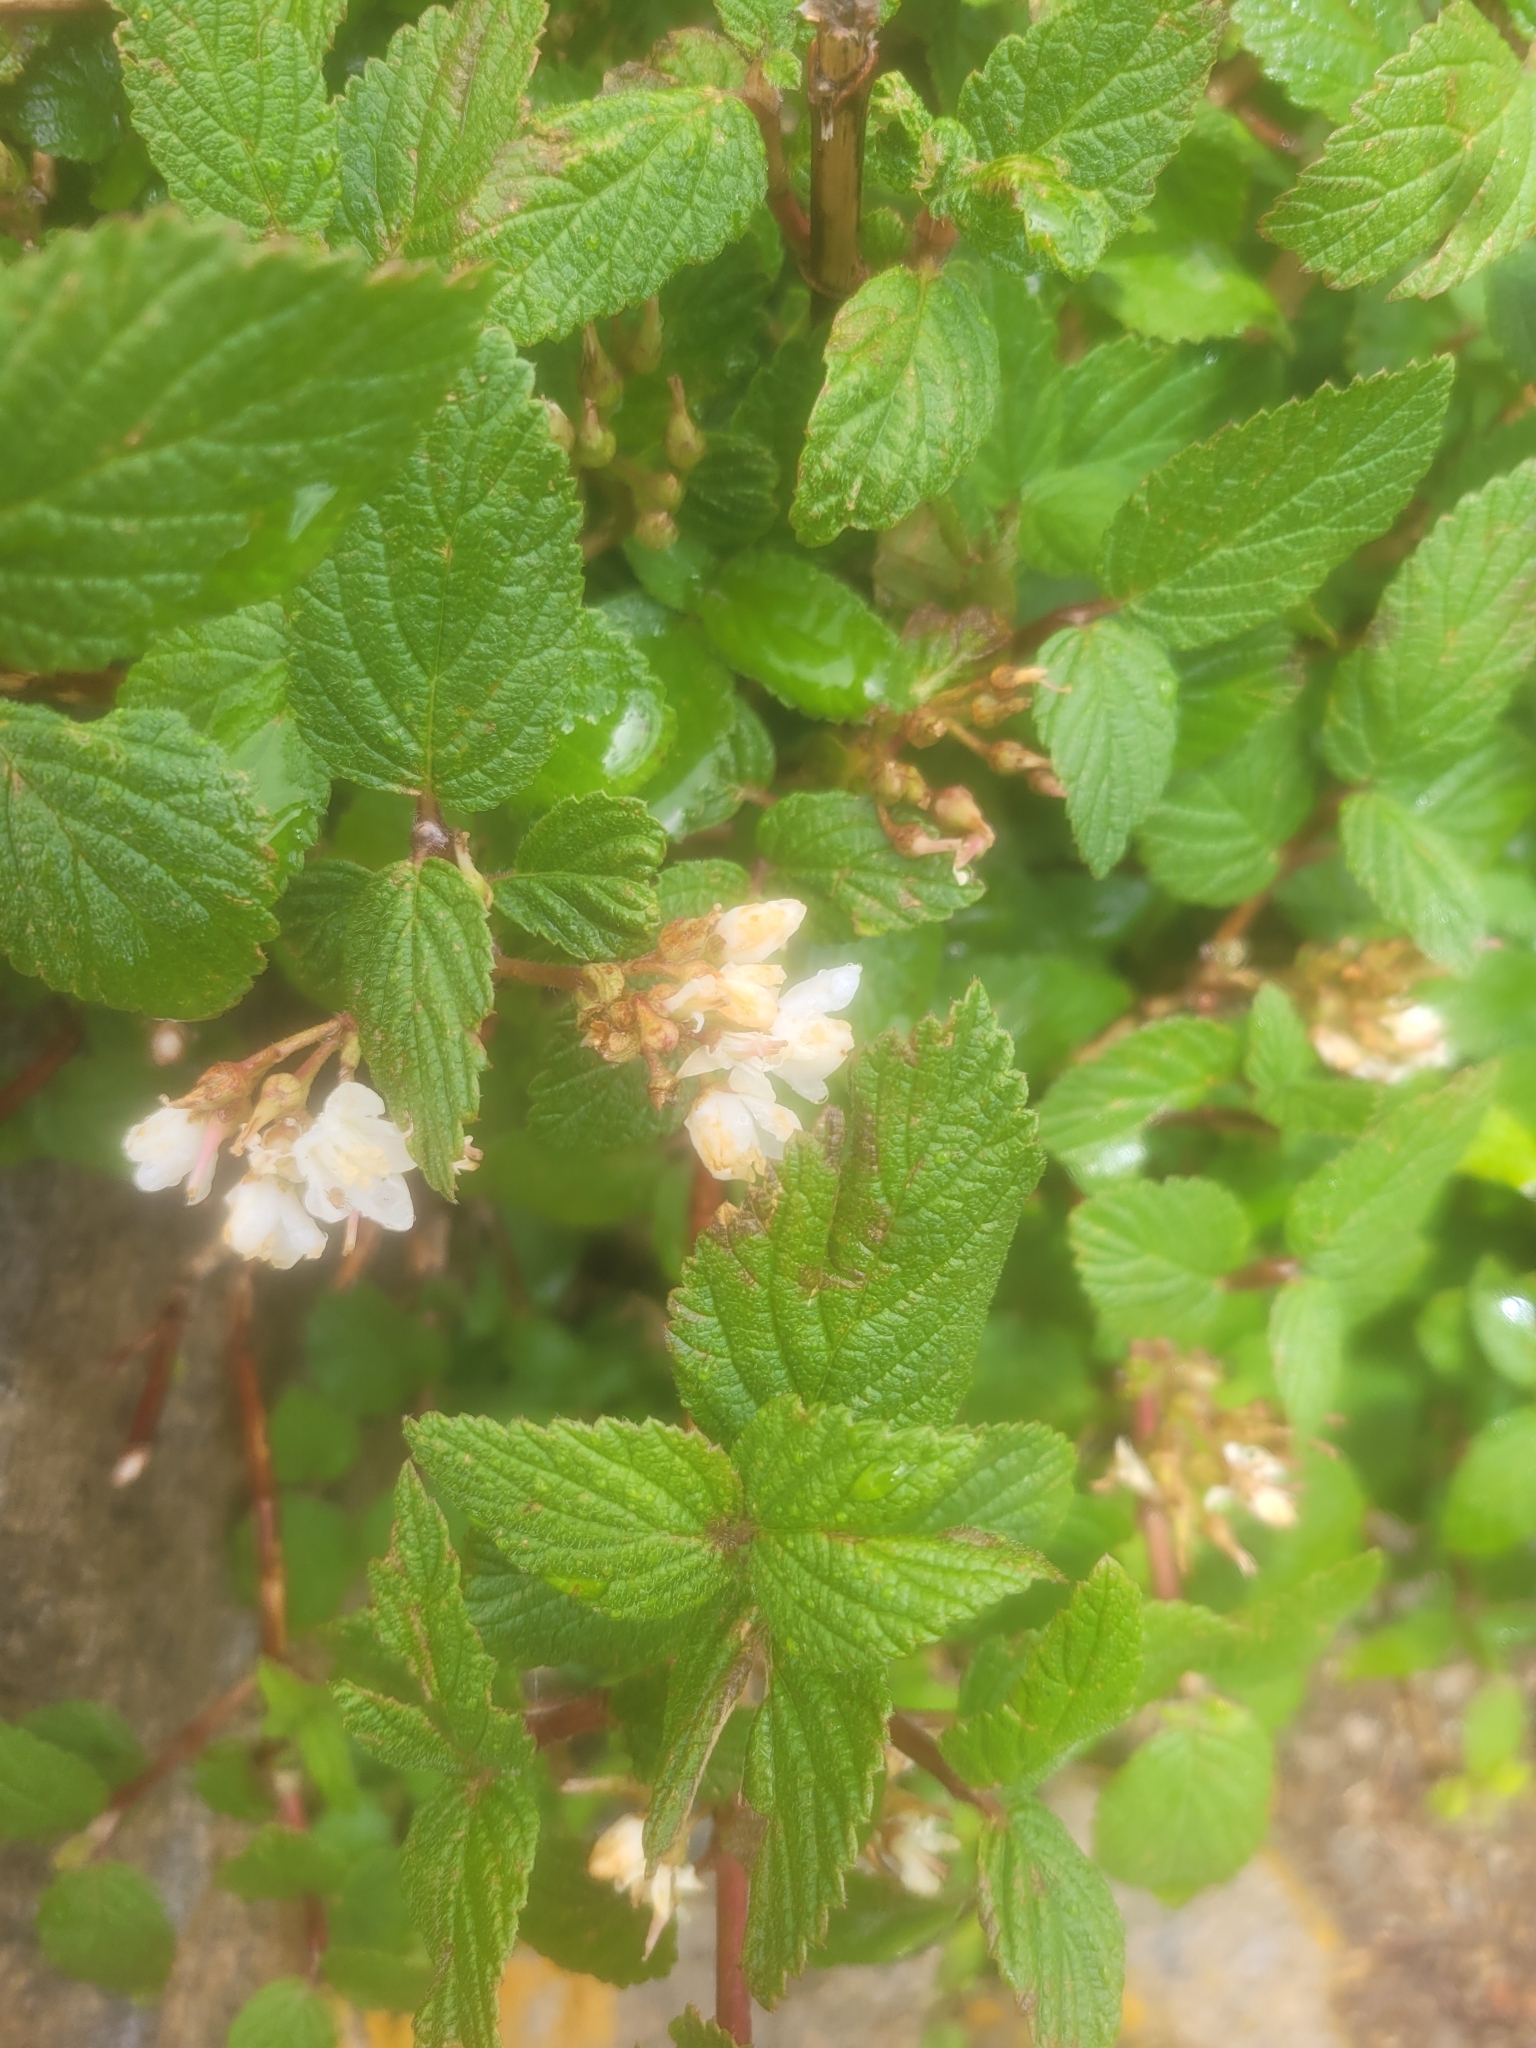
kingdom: Plantae
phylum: Tracheophyta
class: Magnoliopsida
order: Cornales
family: Hydrangeaceae
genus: Jamesia
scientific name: Jamesia americana
